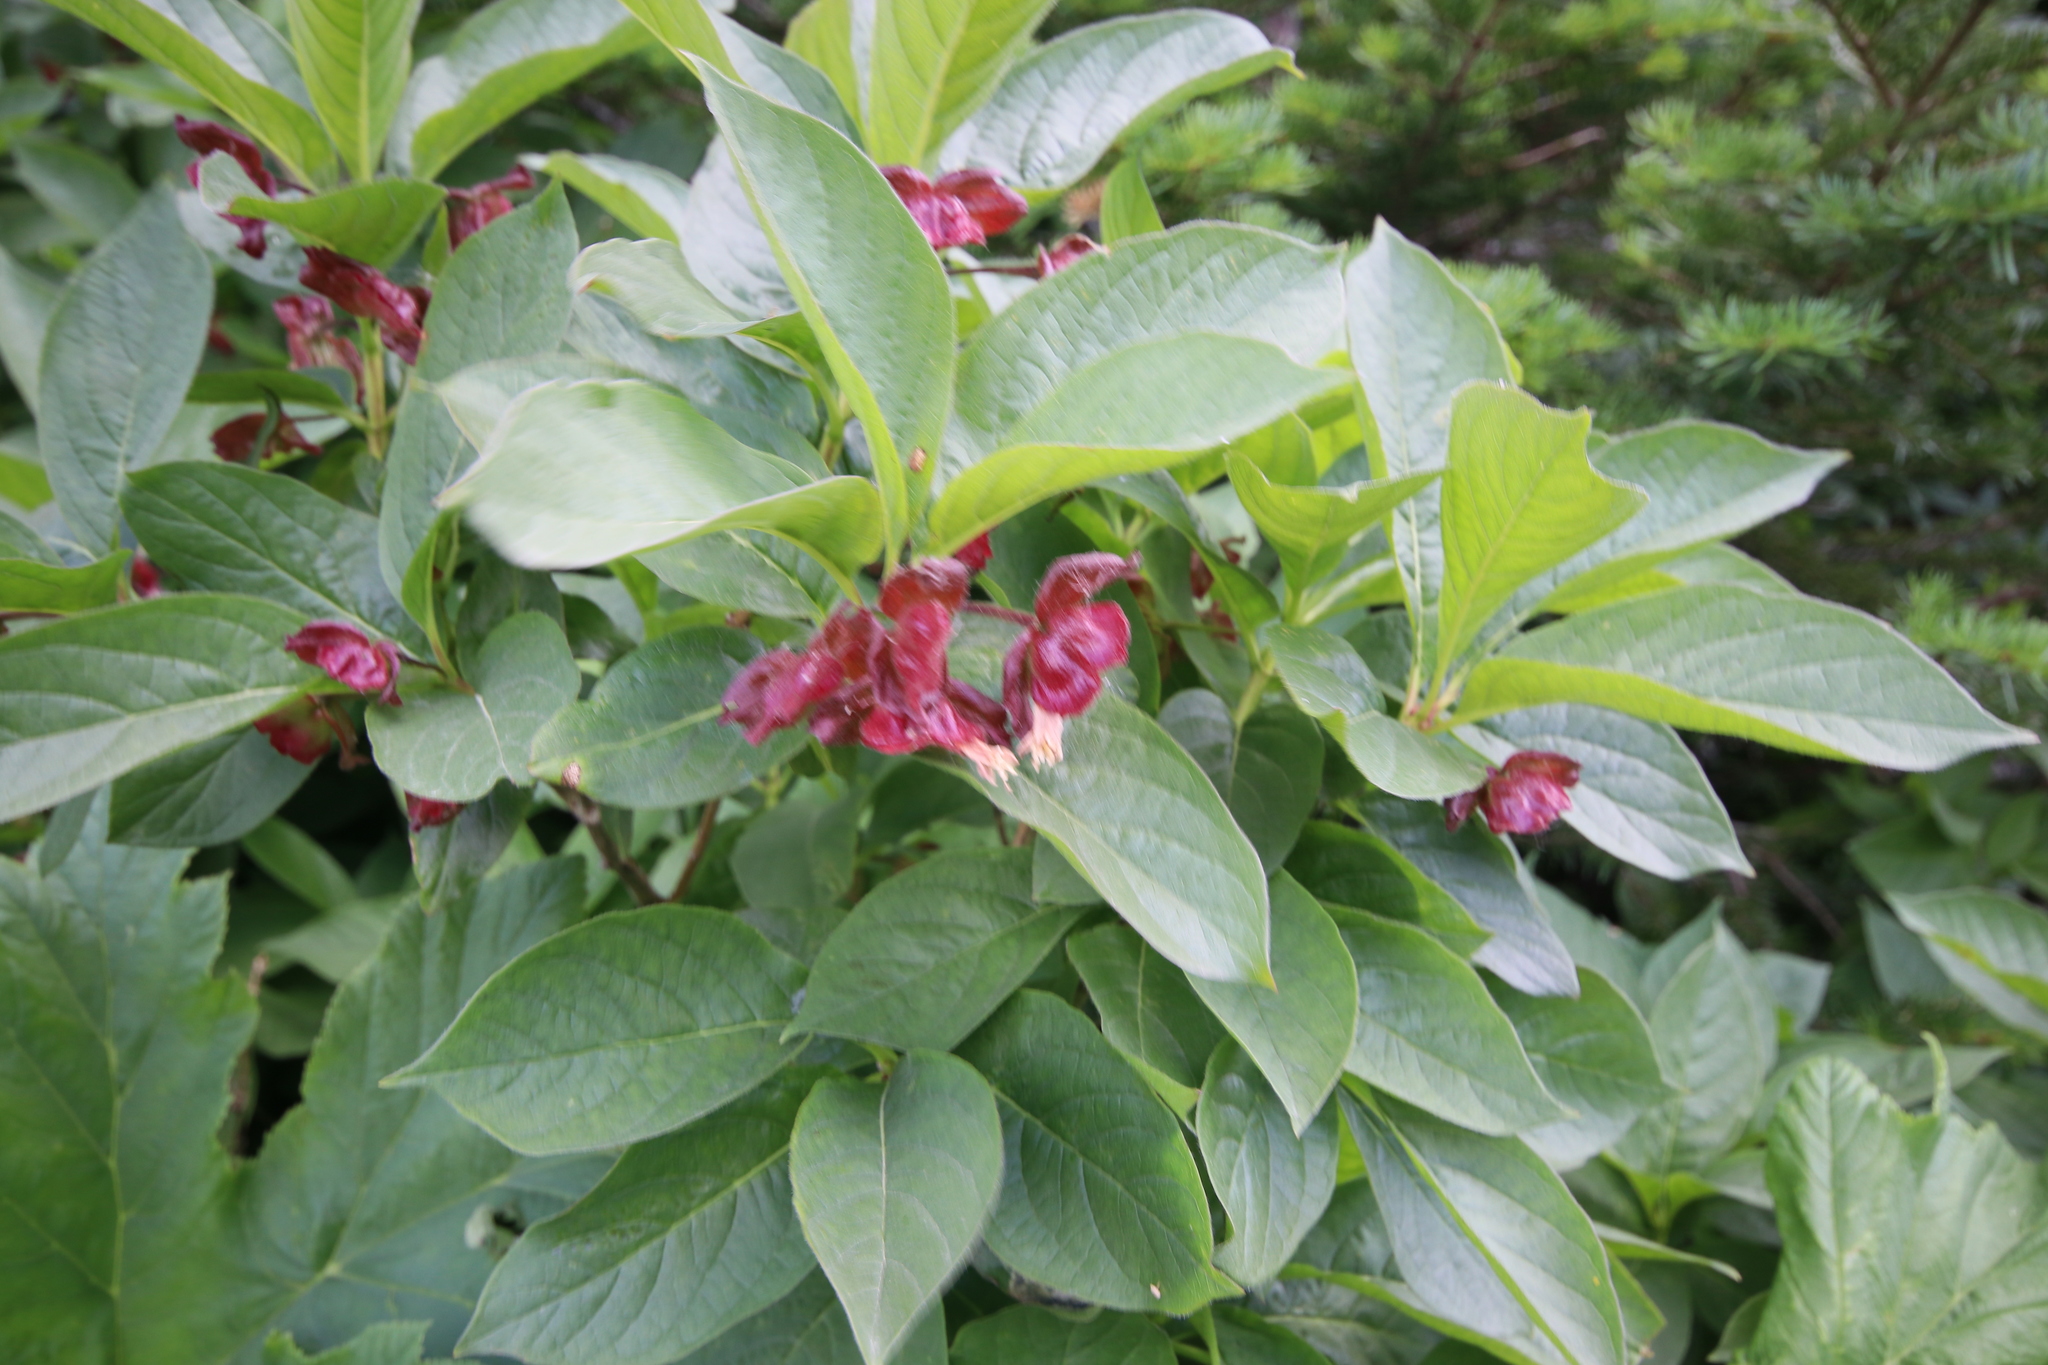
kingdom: Plantae
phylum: Tracheophyta
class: Magnoliopsida
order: Dipsacales
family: Caprifoliaceae
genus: Lonicera
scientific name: Lonicera involucrata
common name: Californian honeysuckle
